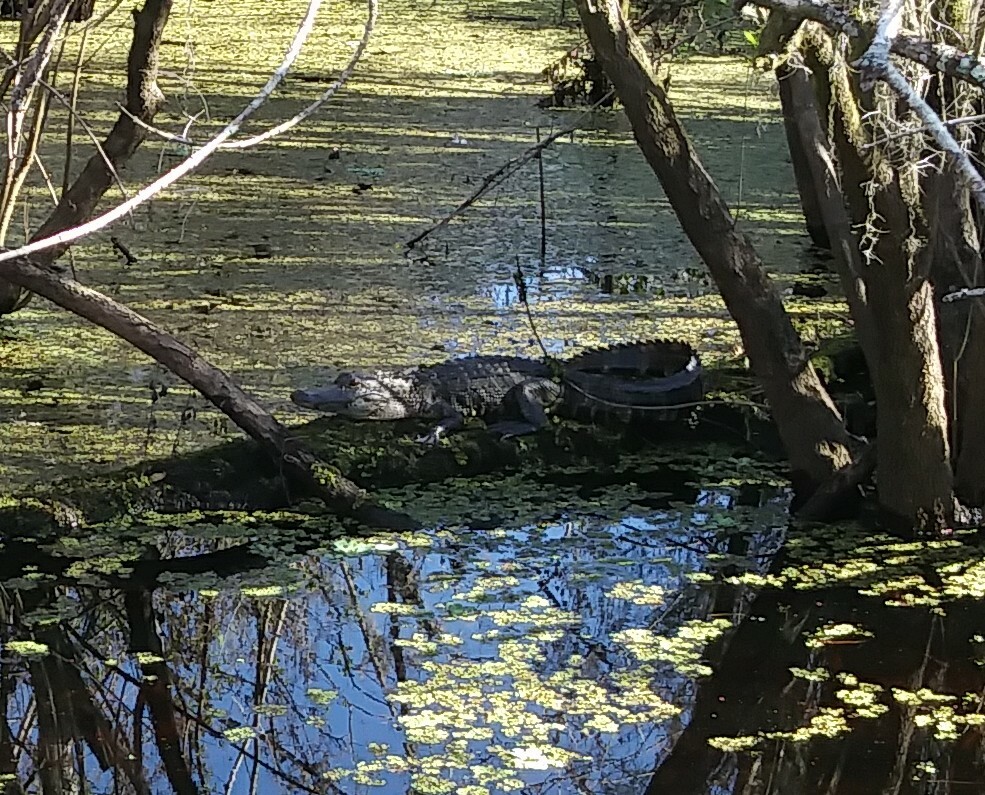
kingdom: Animalia
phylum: Chordata
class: Crocodylia
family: Alligatoridae
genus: Alligator
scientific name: Alligator mississippiensis
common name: American alligator
